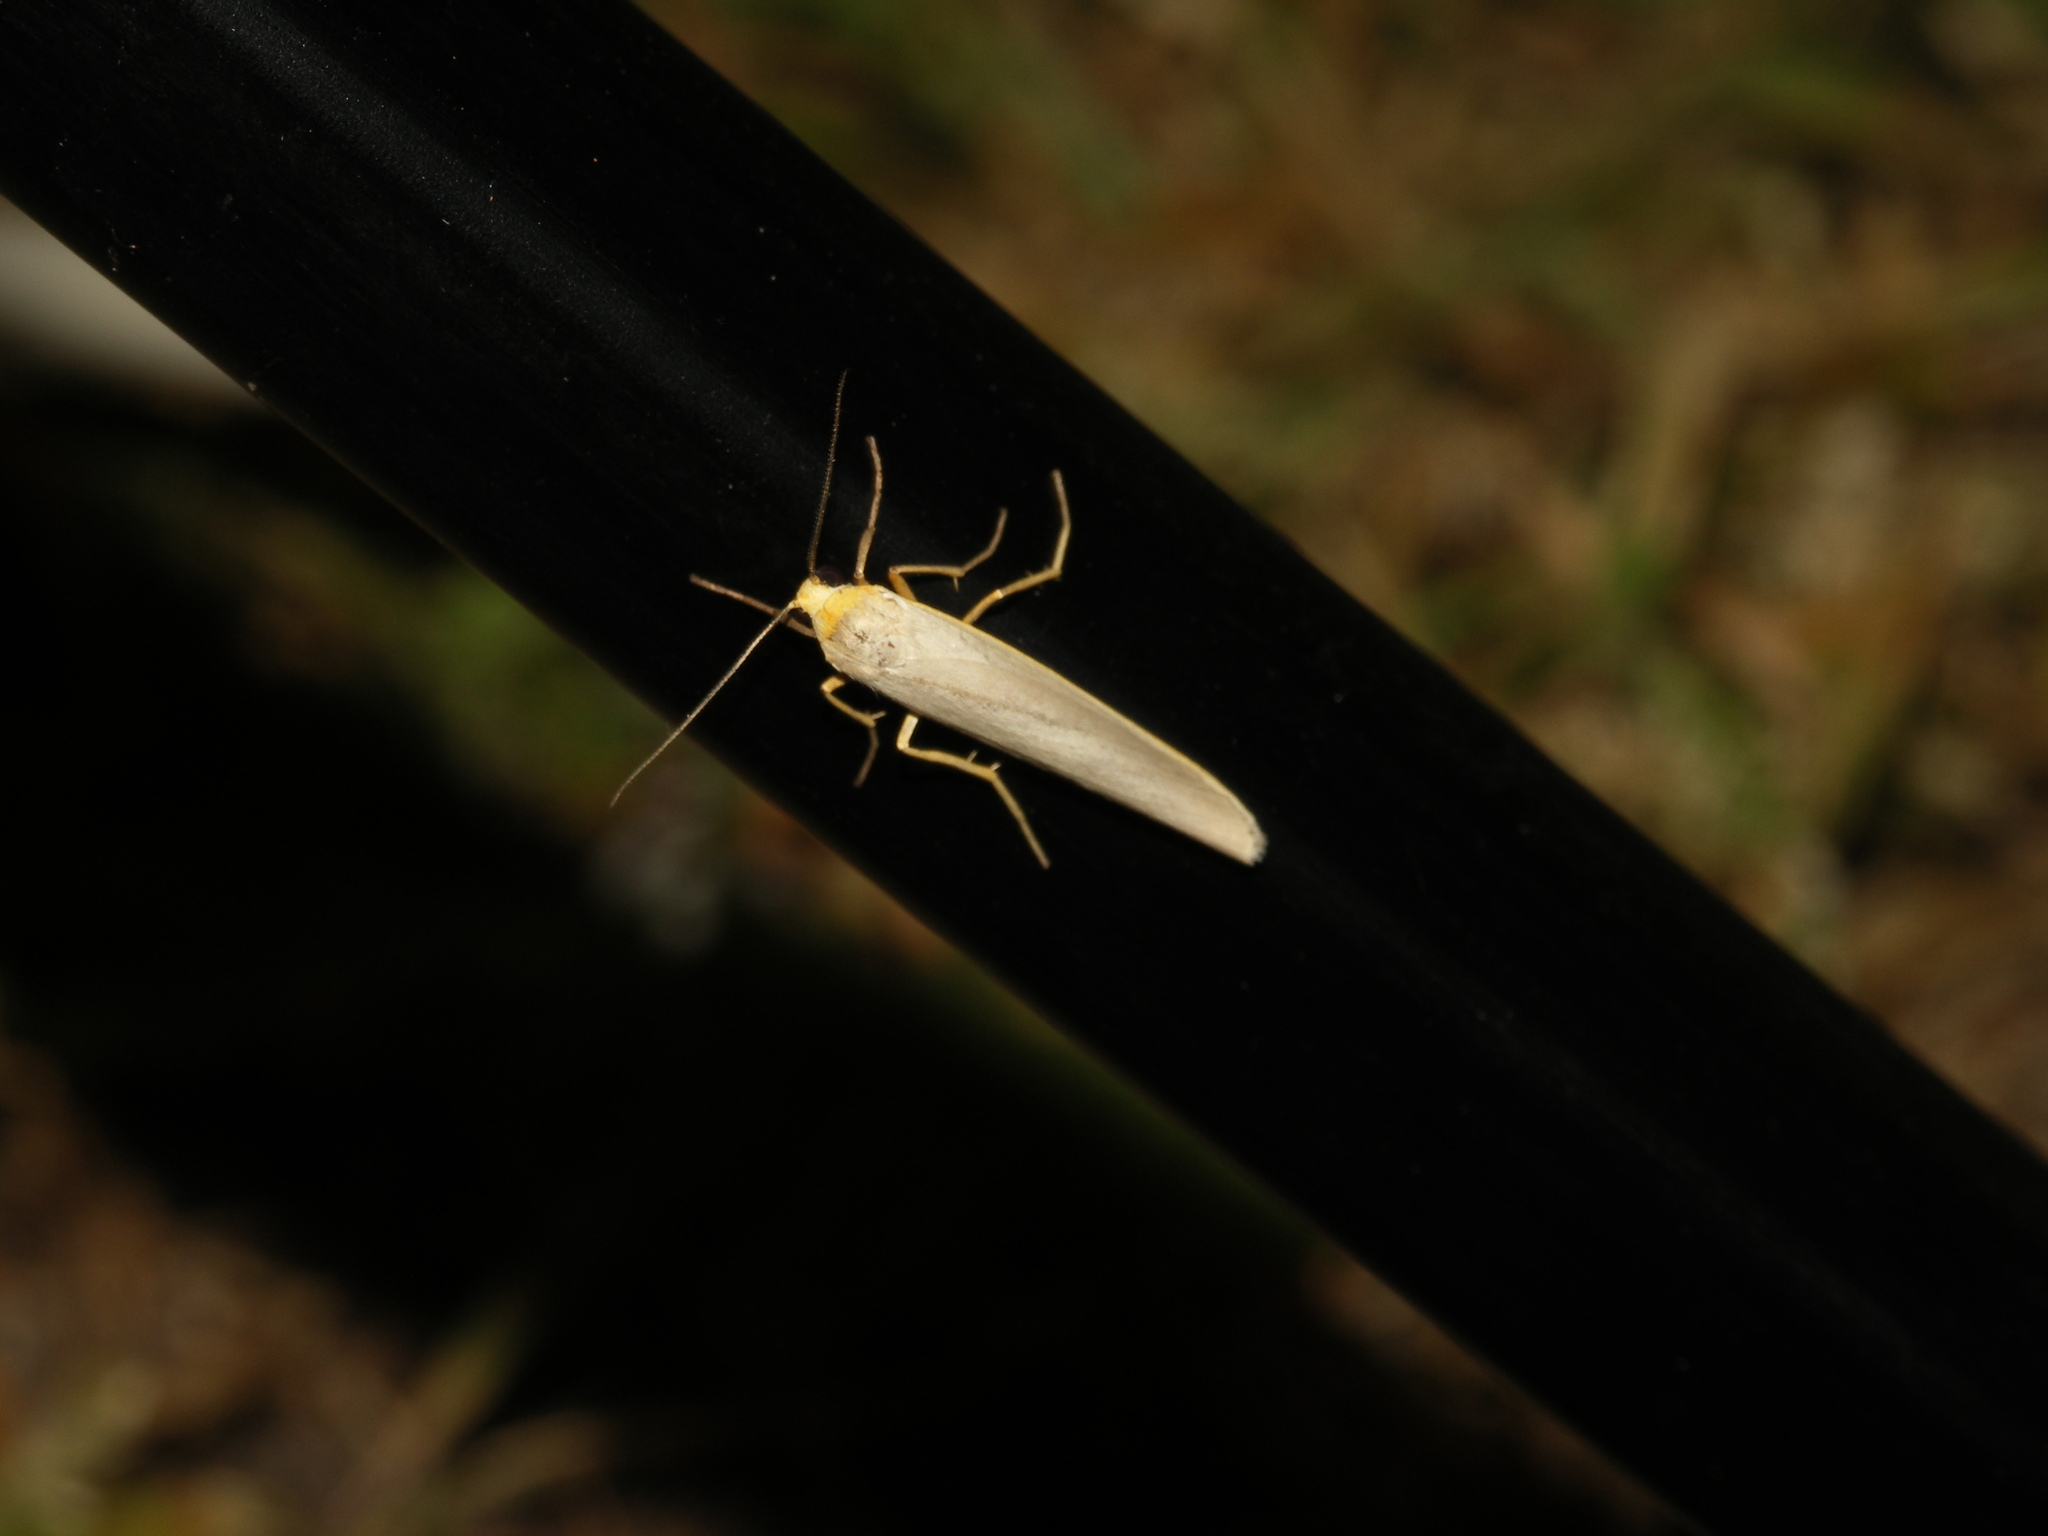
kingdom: Animalia
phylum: Arthropoda
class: Insecta
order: Lepidoptera
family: Erebidae
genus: Eilema
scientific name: Eilema caniola
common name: Hoary footman
